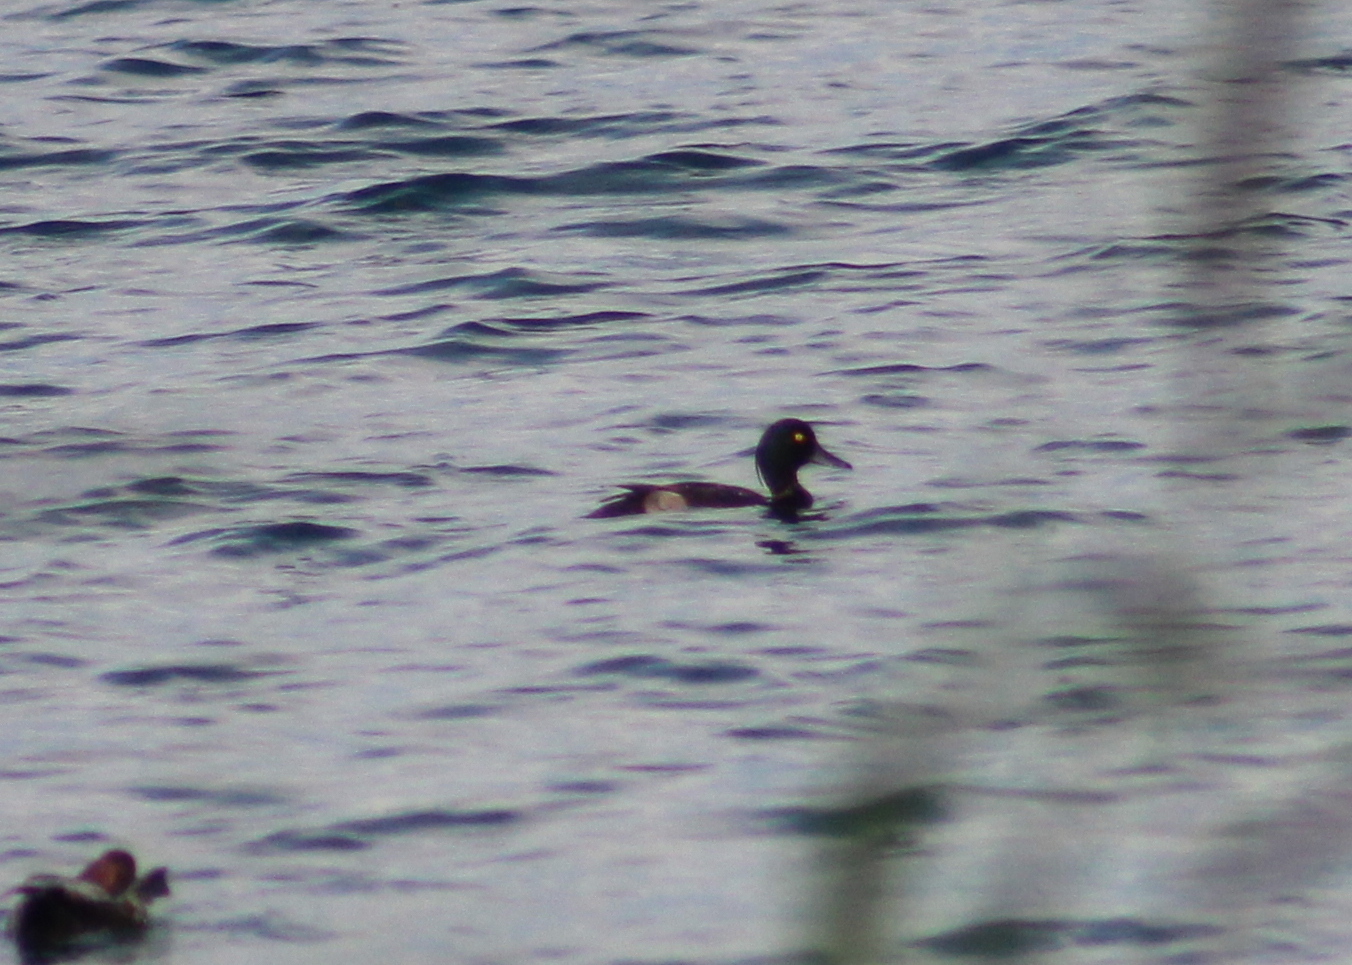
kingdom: Animalia
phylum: Chordata
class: Aves
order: Anseriformes
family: Anatidae
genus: Aythya
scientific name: Aythya fuligula
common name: Tufted duck
